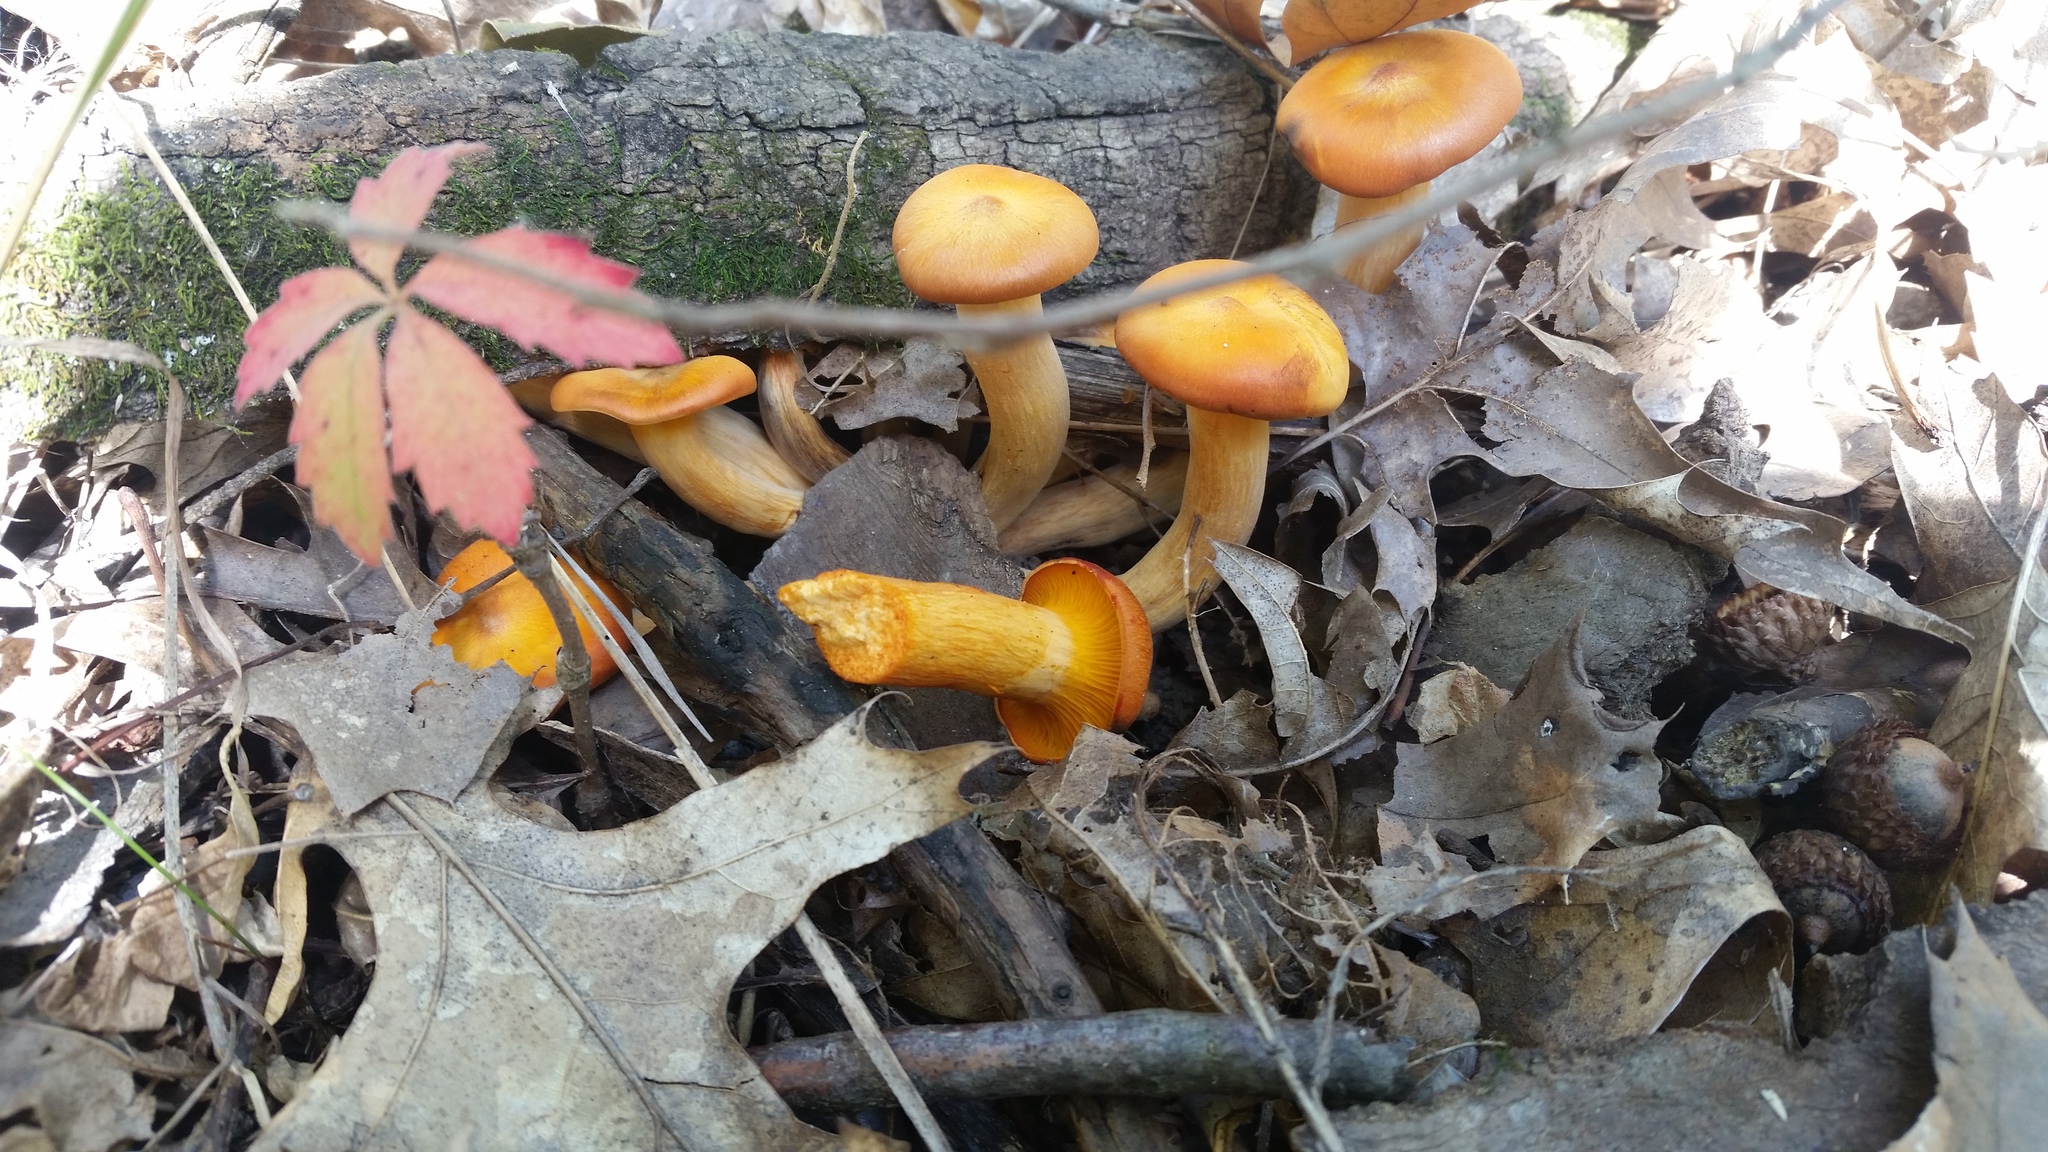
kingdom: Fungi
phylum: Basidiomycota
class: Agaricomycetes
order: Agaricales
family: Omphalotaceae
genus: Omphalotus
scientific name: Omphalotus illudens
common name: Jack o lantern
